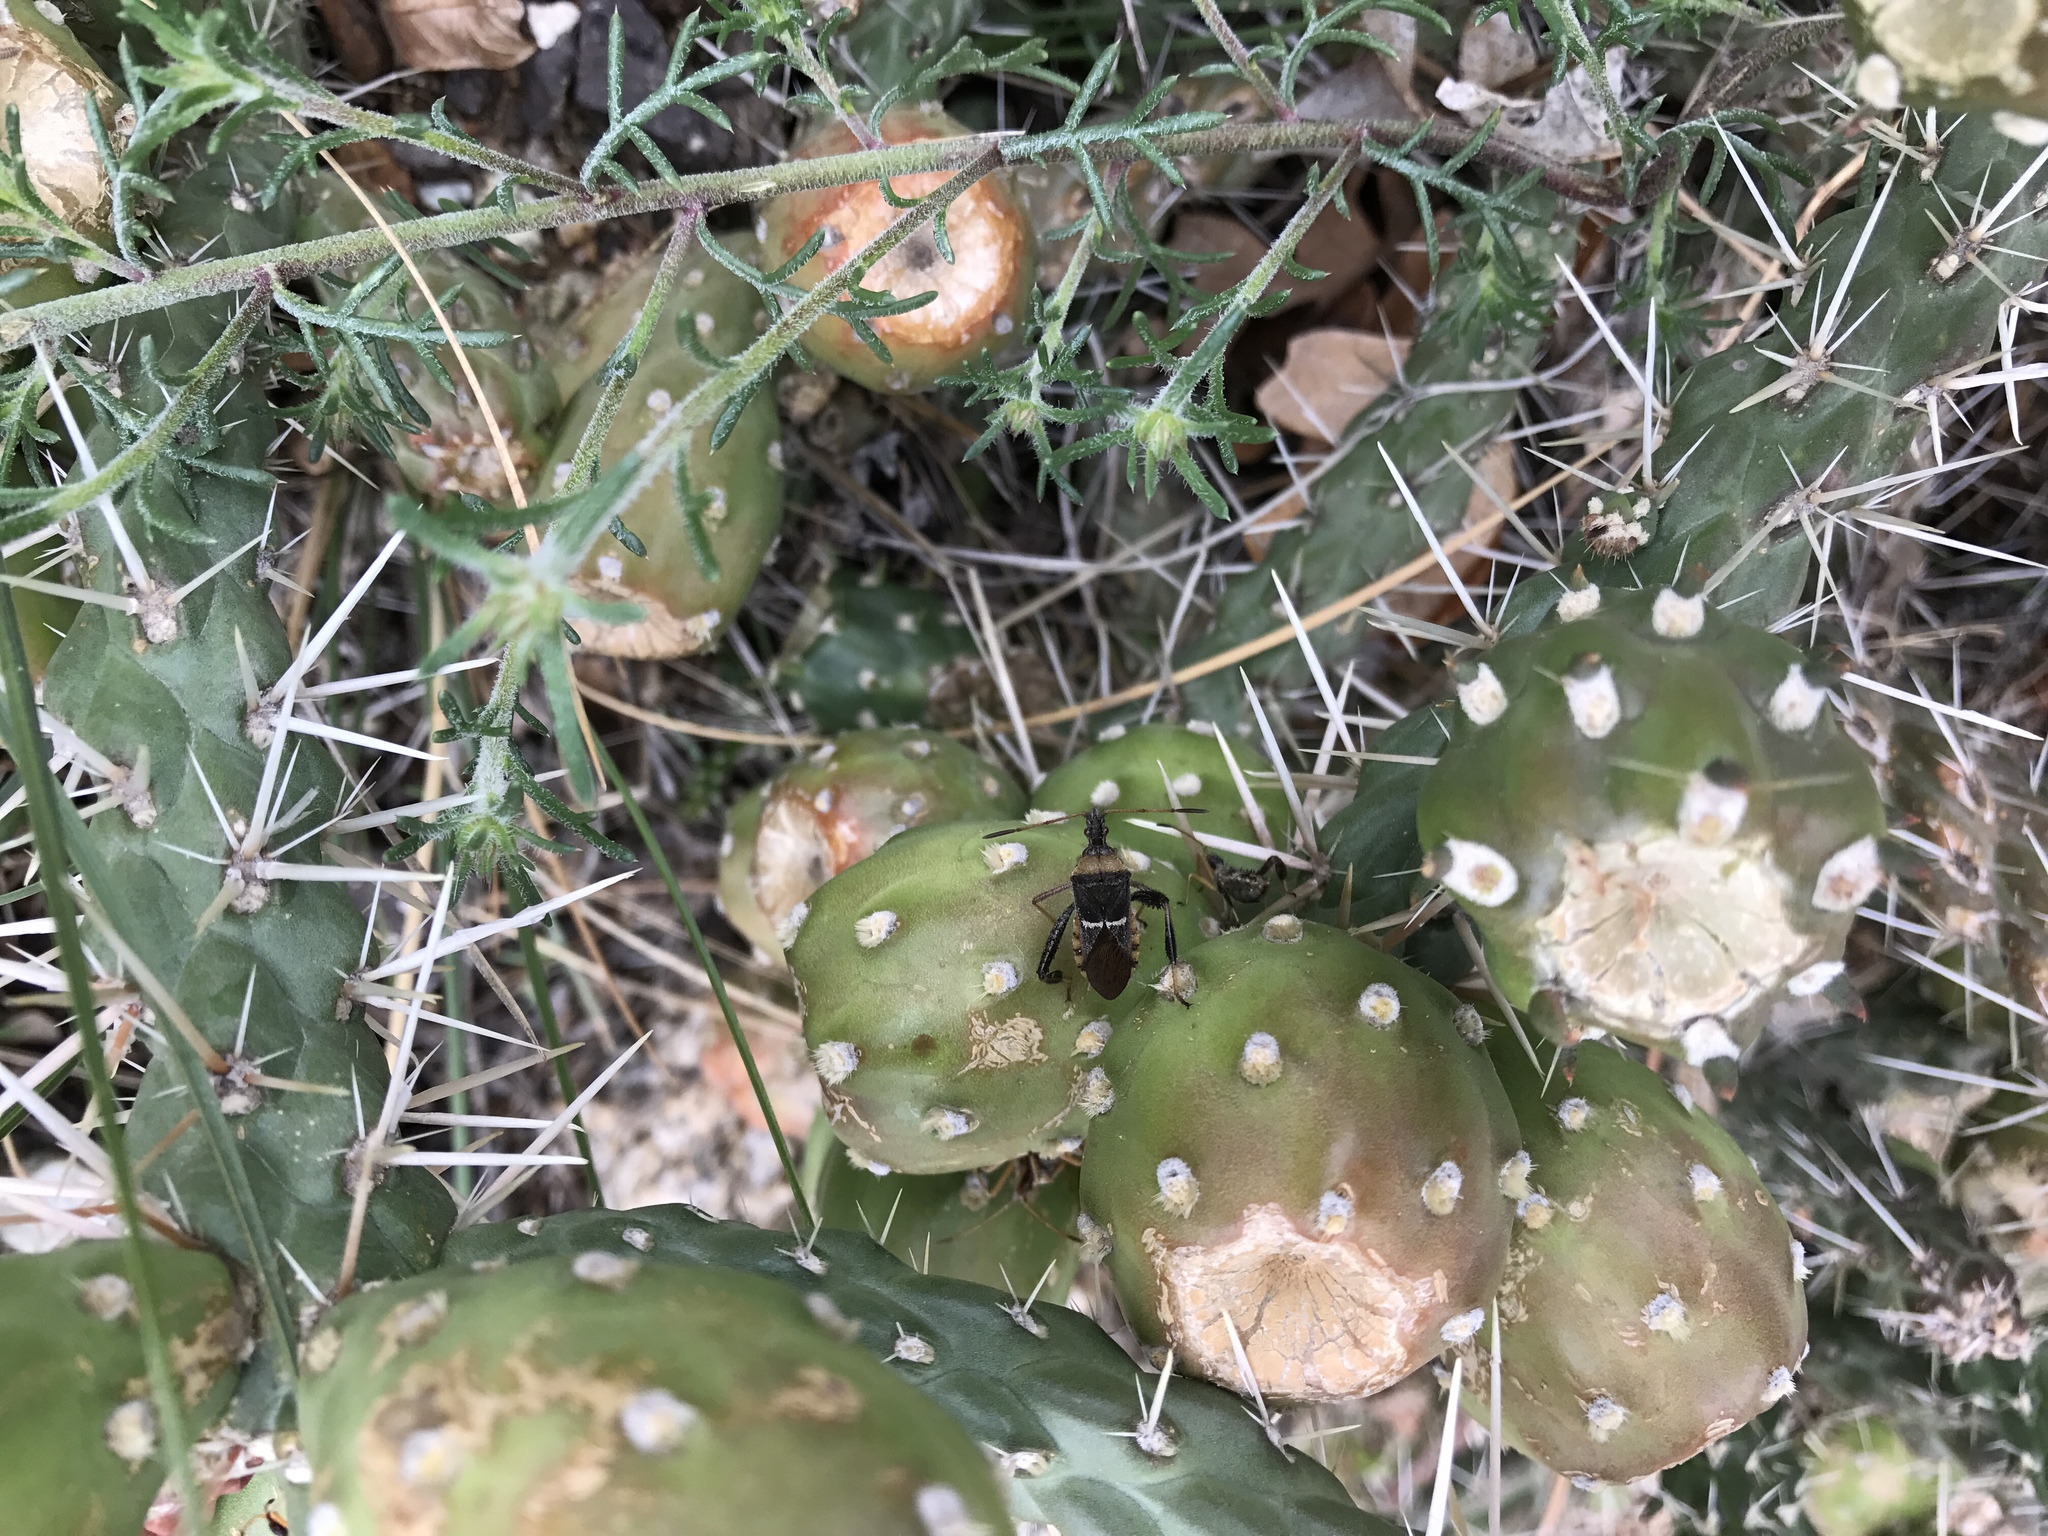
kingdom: Plantae
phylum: Tracheophyta
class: Magnoliopsida
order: Caryophyllales
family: Cactaceae
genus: Cylindropuntia
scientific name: Cylindropuntia whipplei
